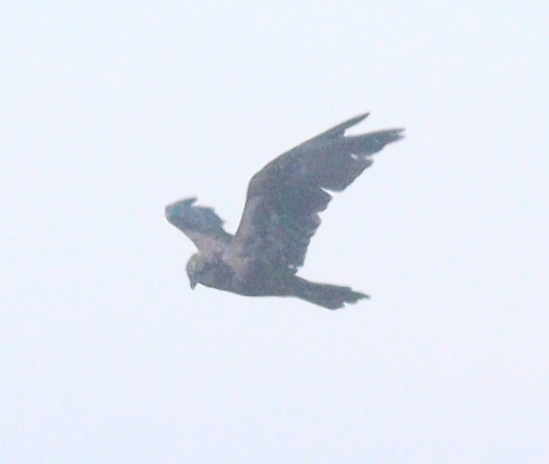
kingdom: Animalia
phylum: Chordata
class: Aves
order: Accipitriformes
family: Accipitridae
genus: Circus
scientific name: Circus aeruginosus
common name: Western marsh harrier
